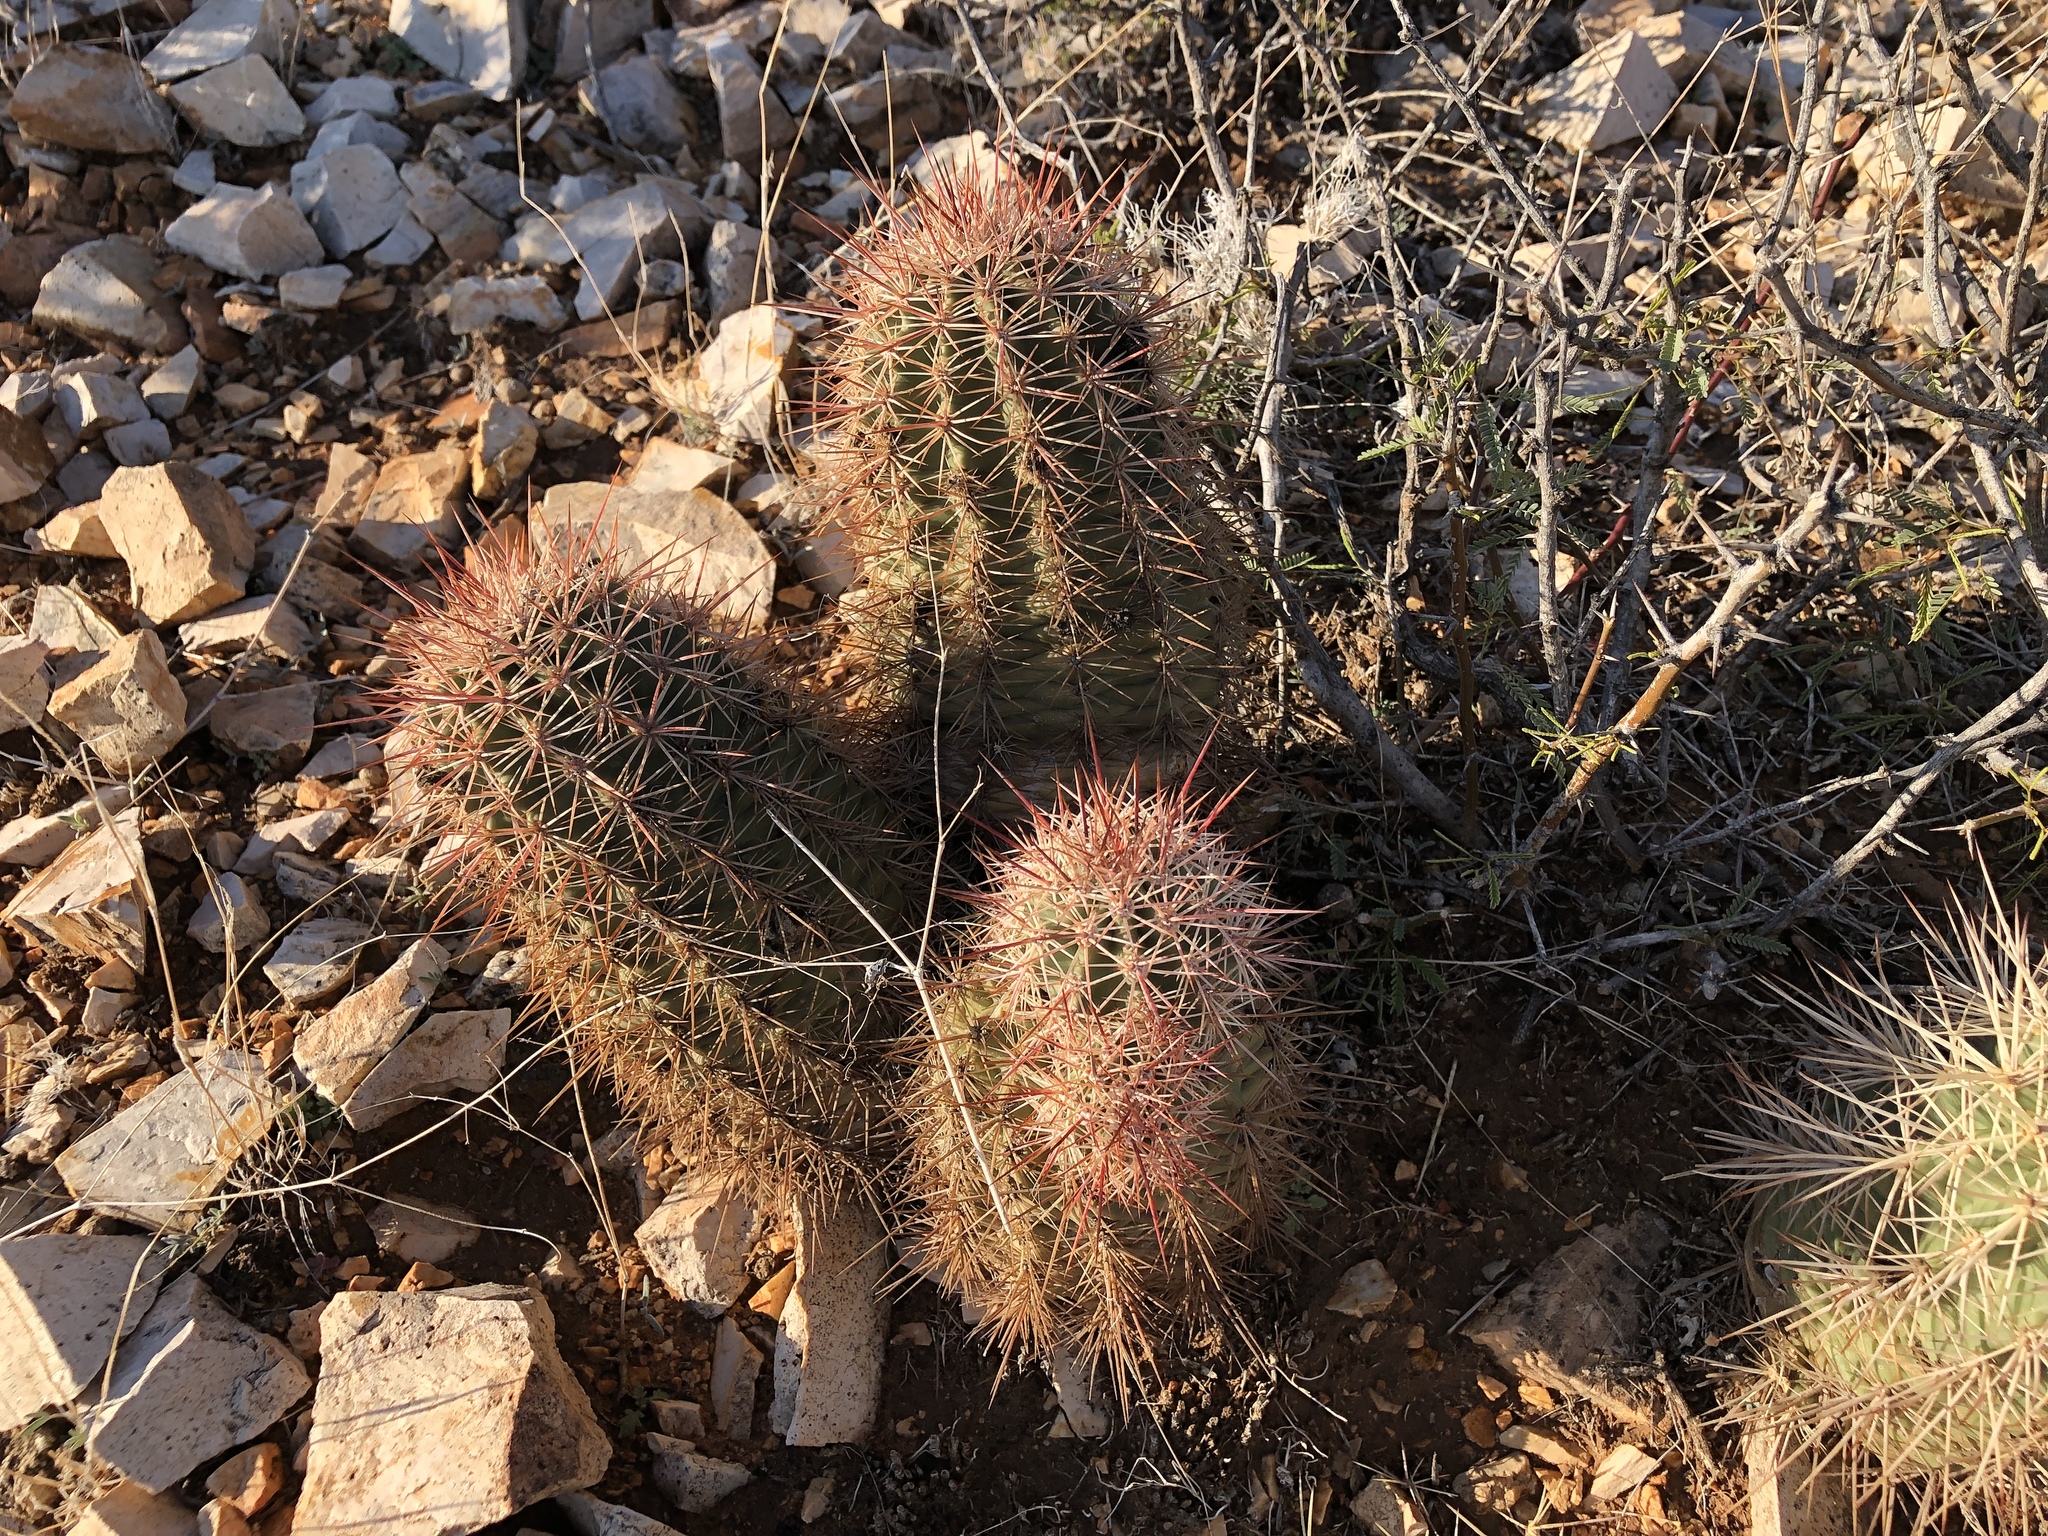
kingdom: Plantae
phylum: Tracheophyta
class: Magnoliopsida
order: Caryophyllales
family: Cactaceae
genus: Echinocereus
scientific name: Echinocereus coccineus
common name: Scarlet hedgehog cactus
